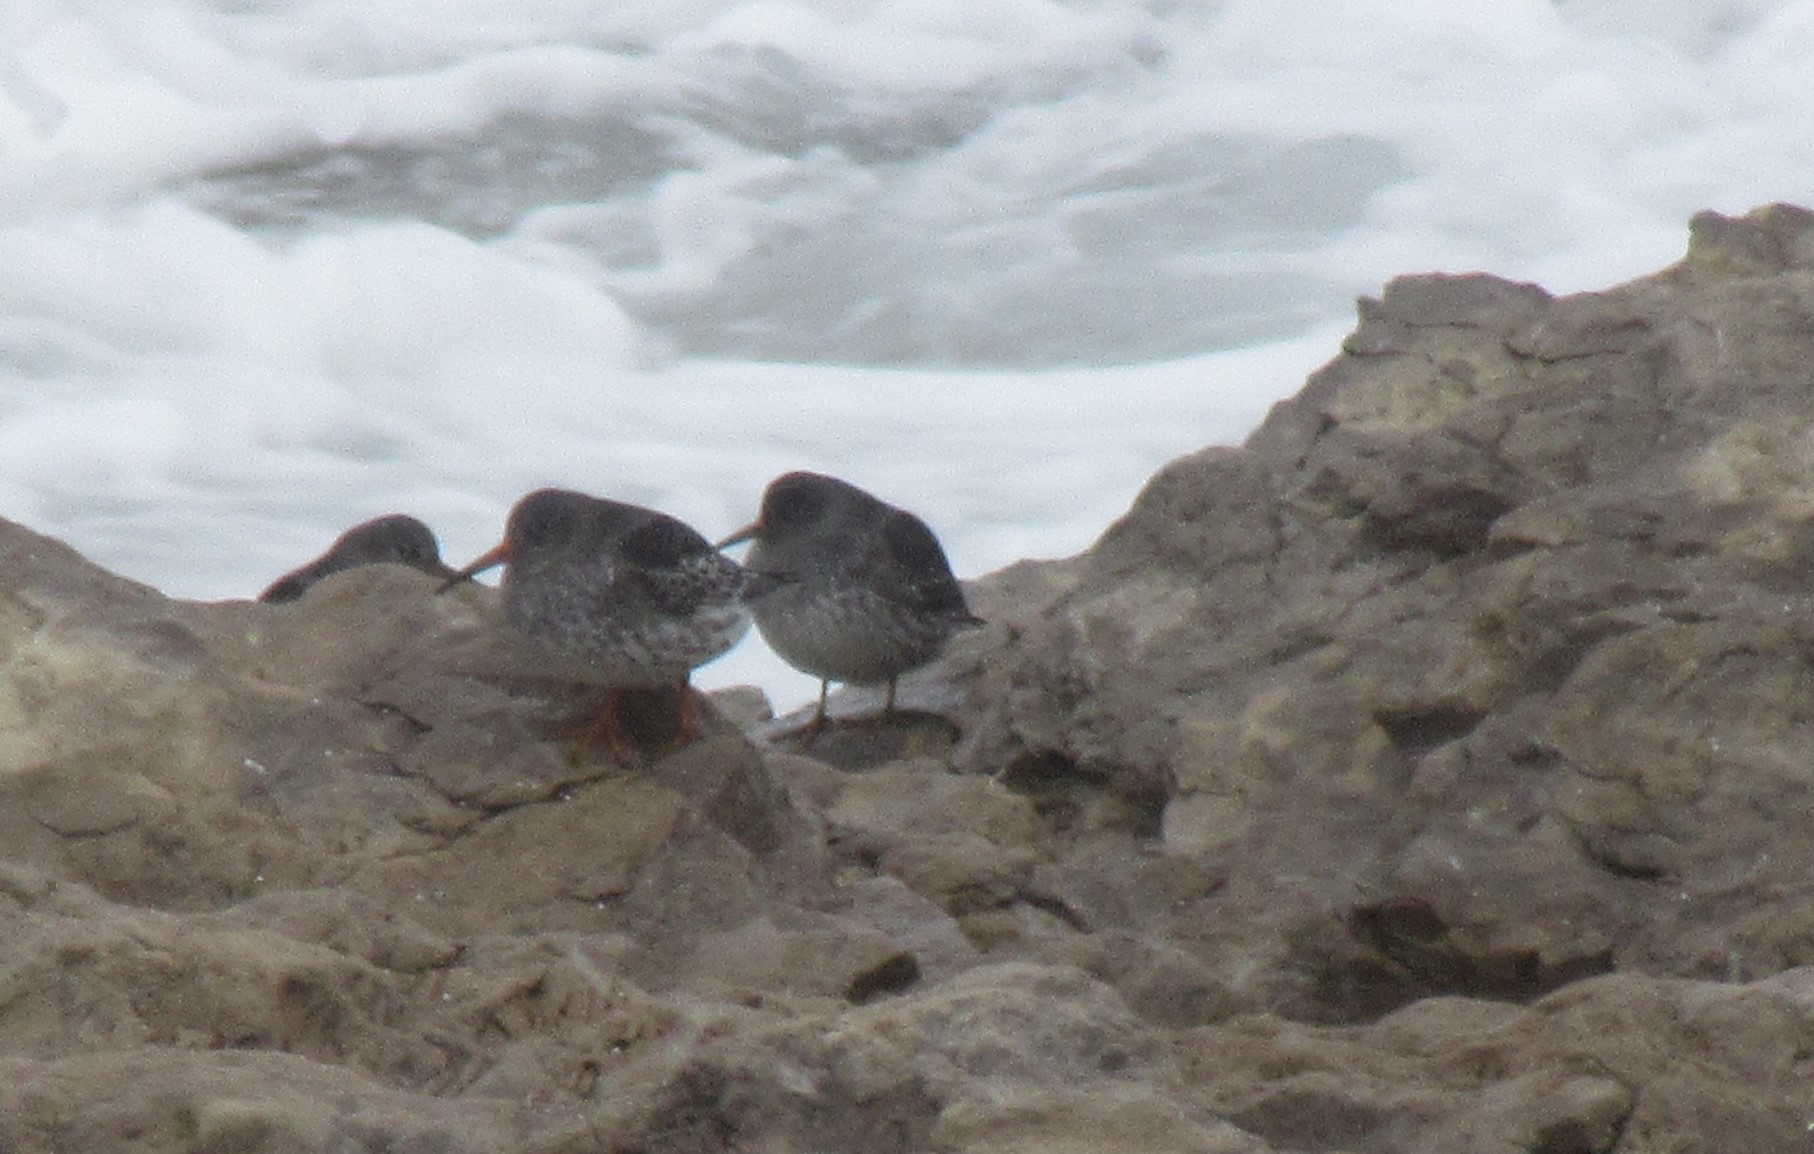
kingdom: Animalia
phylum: Chordata
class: Aves
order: Charadriiformes
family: Scolopacidae
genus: Calidris
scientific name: Calidris maritima
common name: Purple sandpiper
